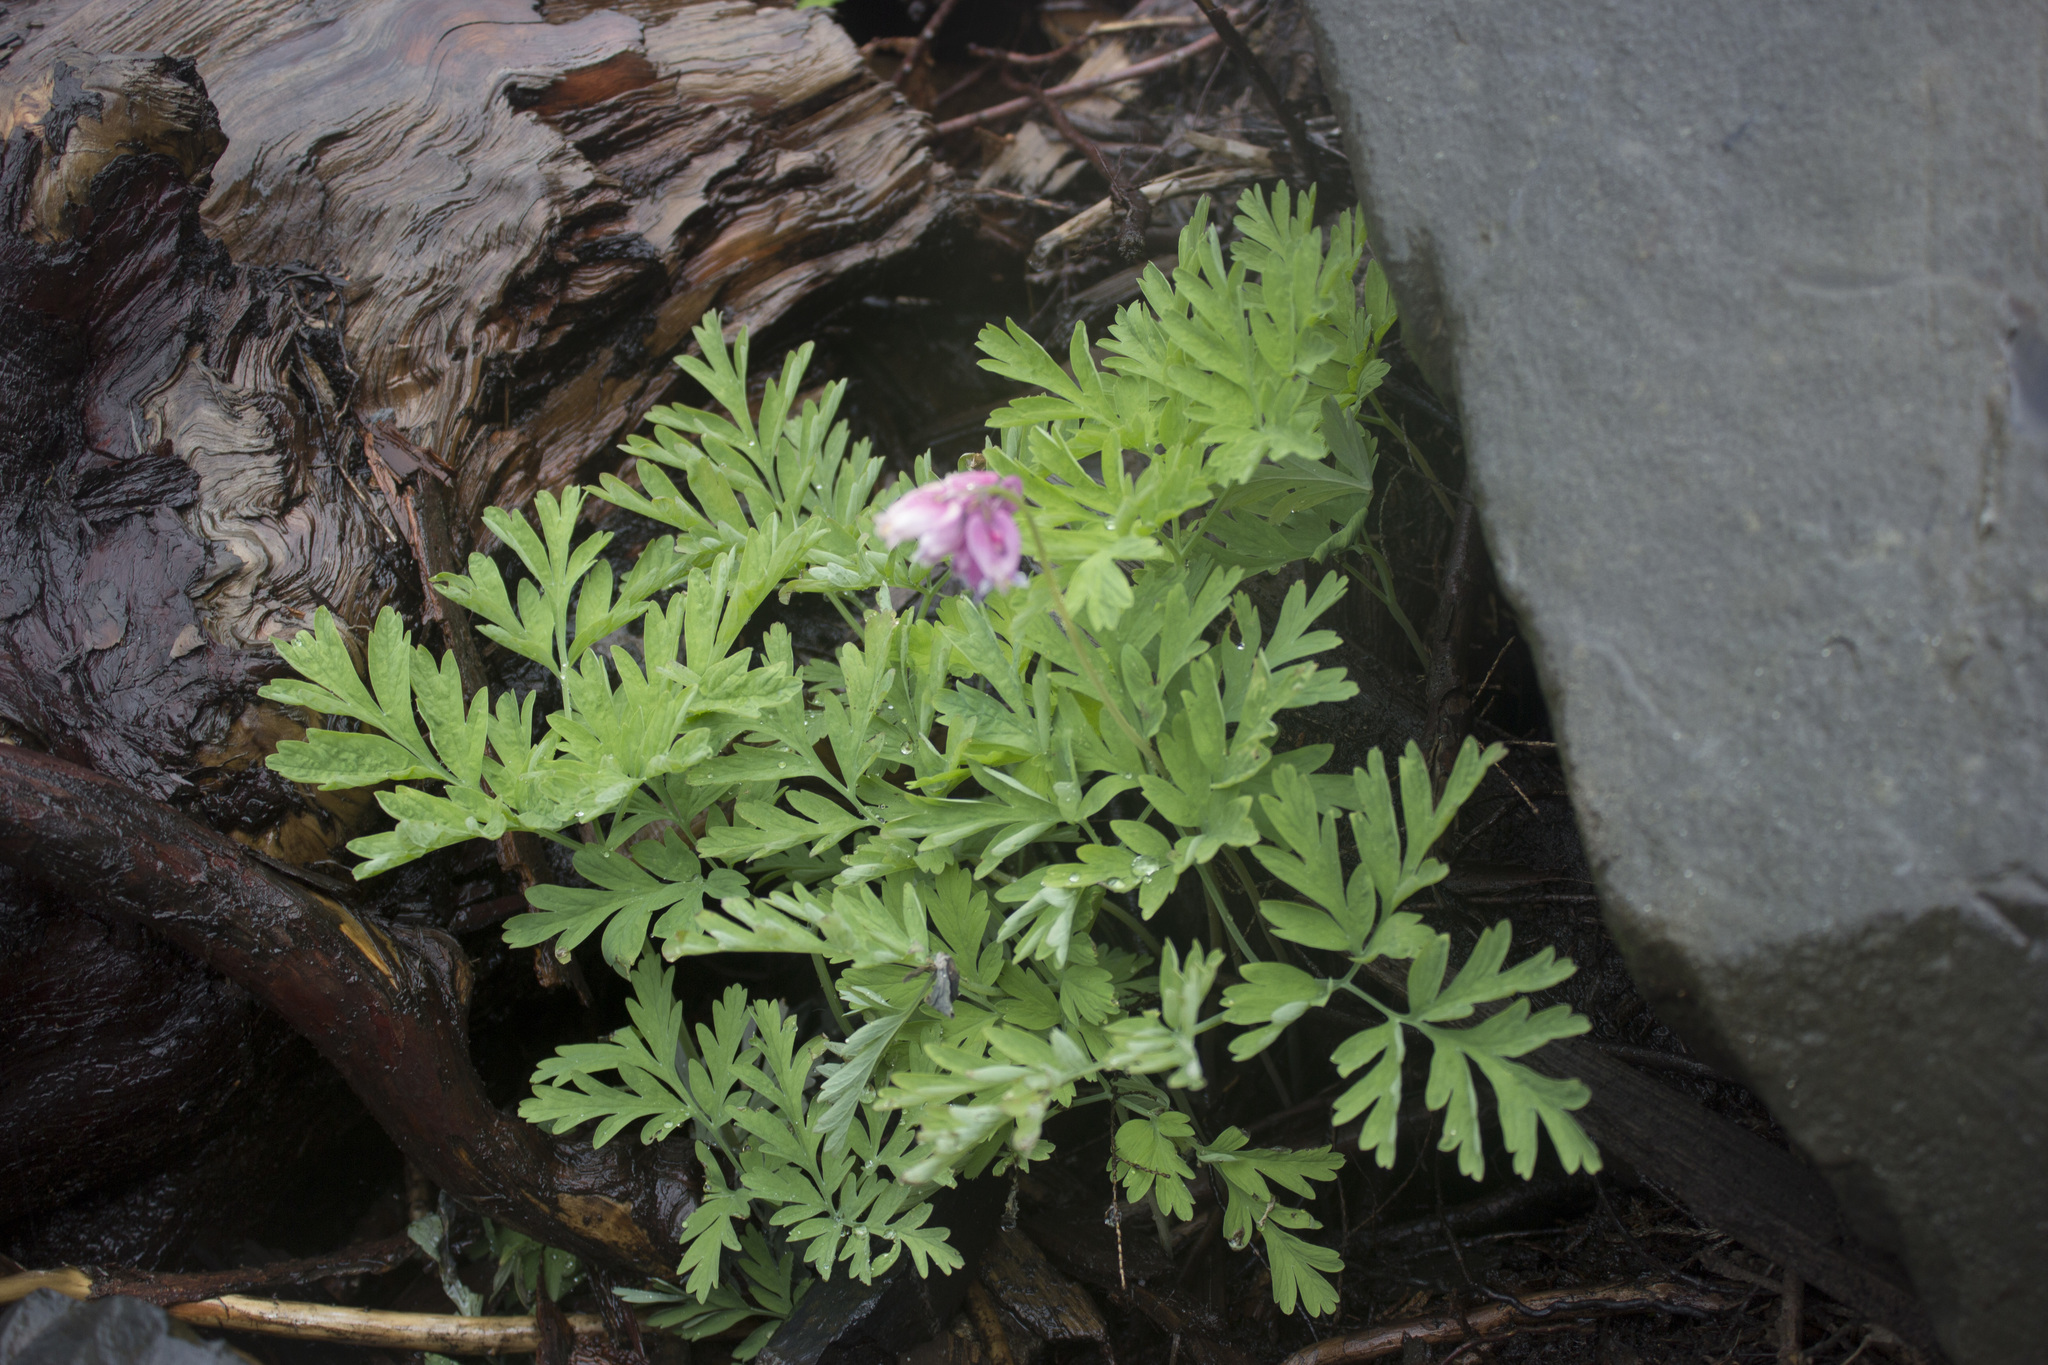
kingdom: Plantae
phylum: Tracheophyta
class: Magnoliopsida
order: Ranunculales
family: Papaveraceae
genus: Dicentra
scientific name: Dicentra formosa
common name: Bleeding-heart
